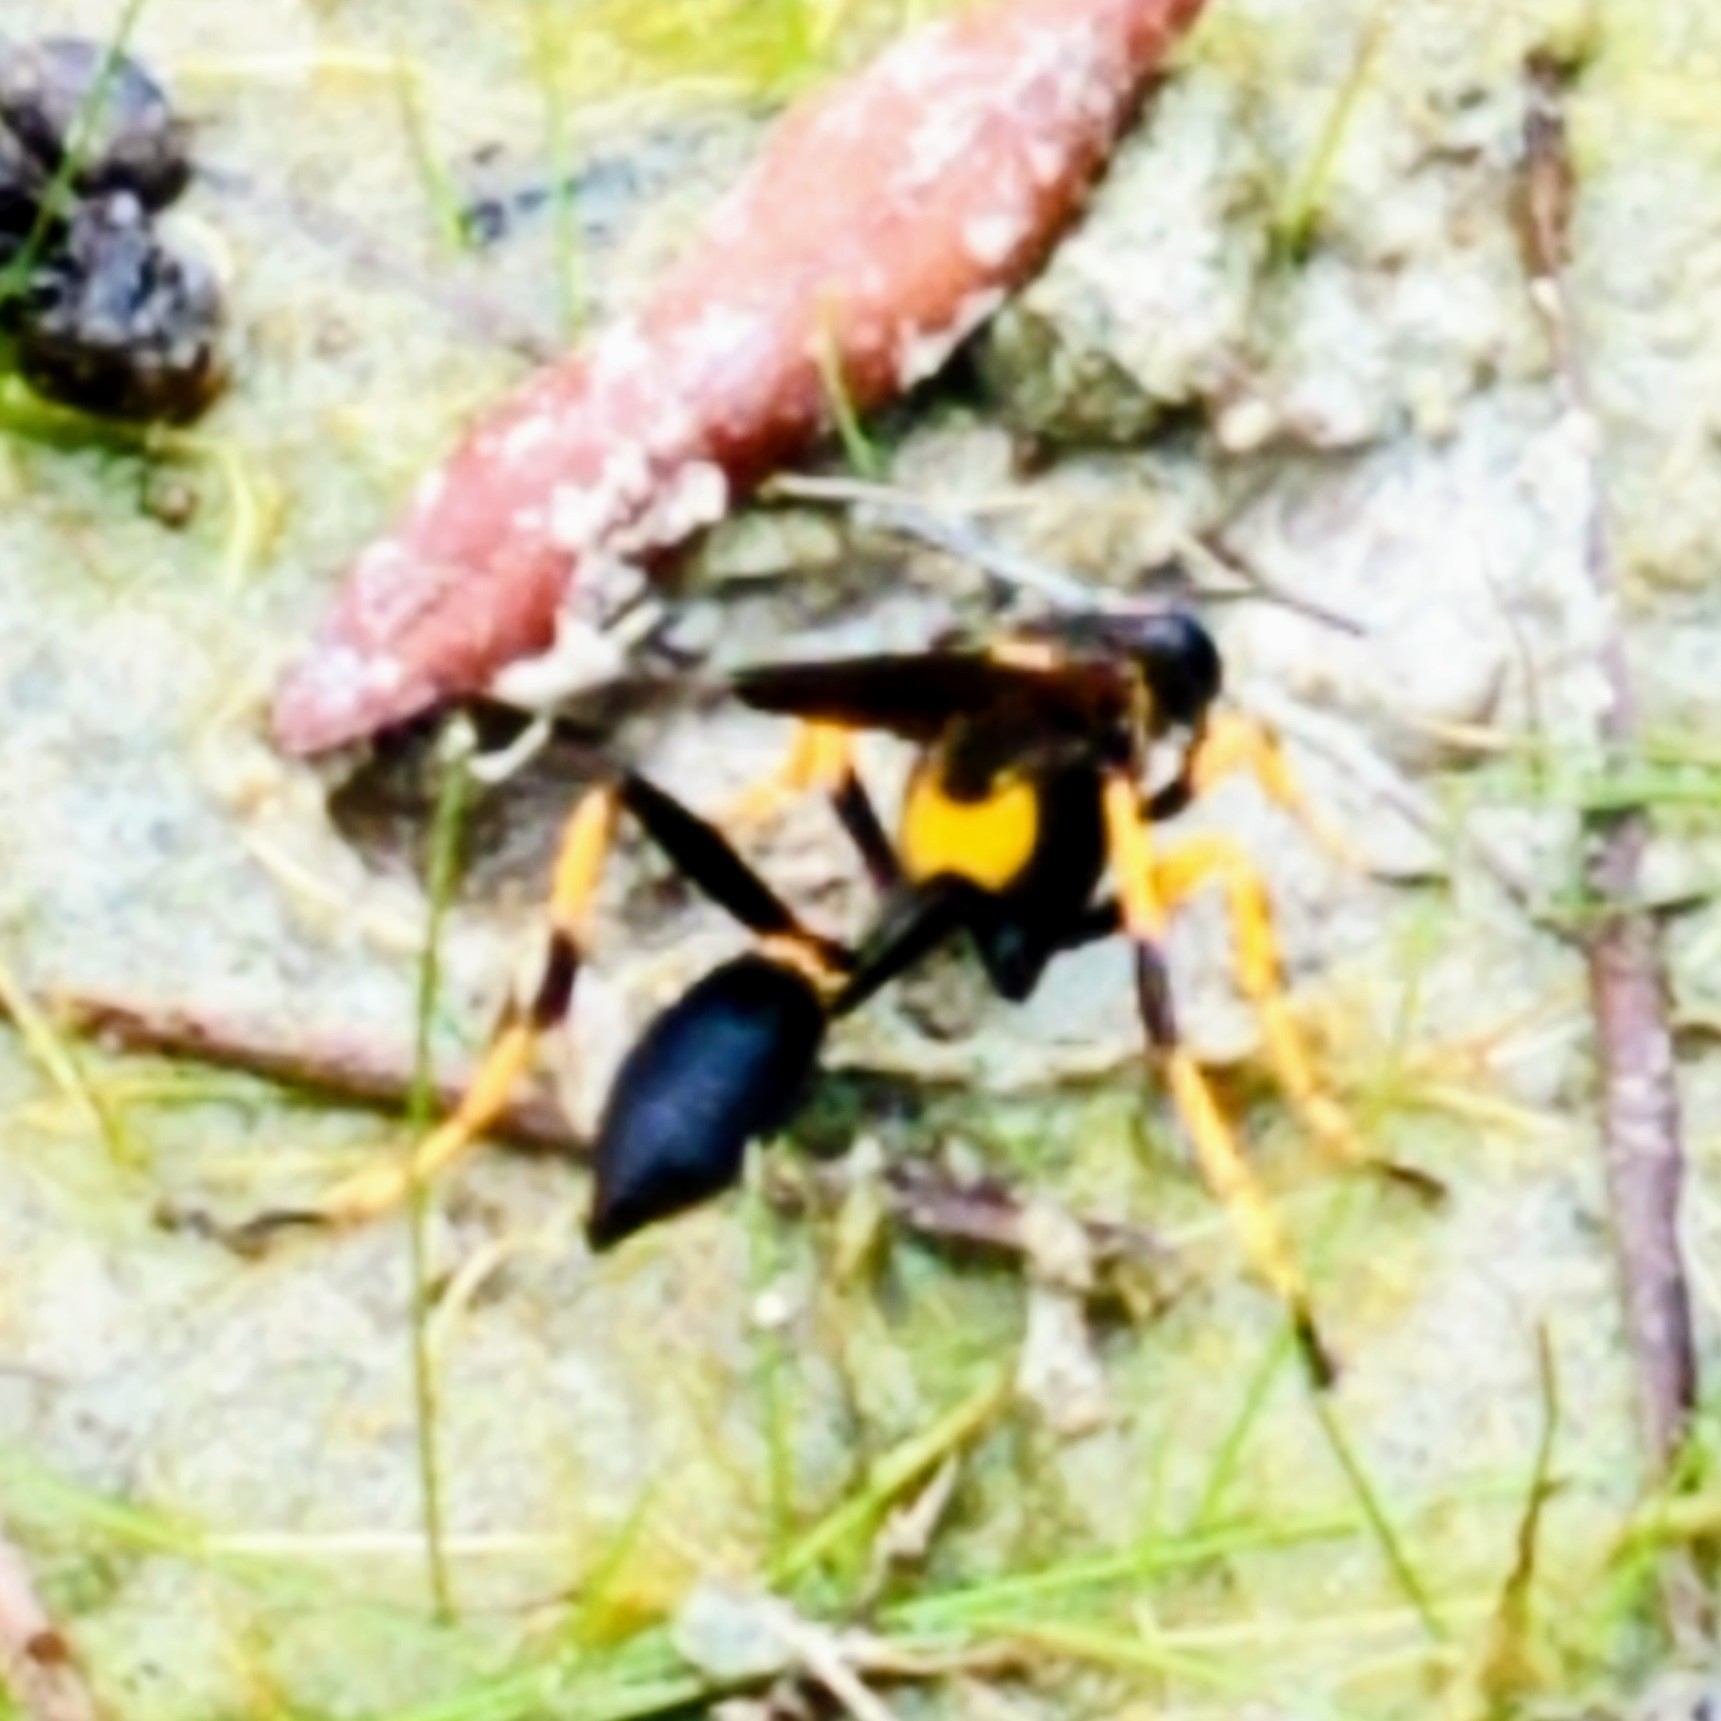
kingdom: Animalia
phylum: Arthropoda
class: Insecta
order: Hymenoptera
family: Sphecidae
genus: Sceliphron
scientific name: Sceliphron caementarium
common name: Mud dauber
